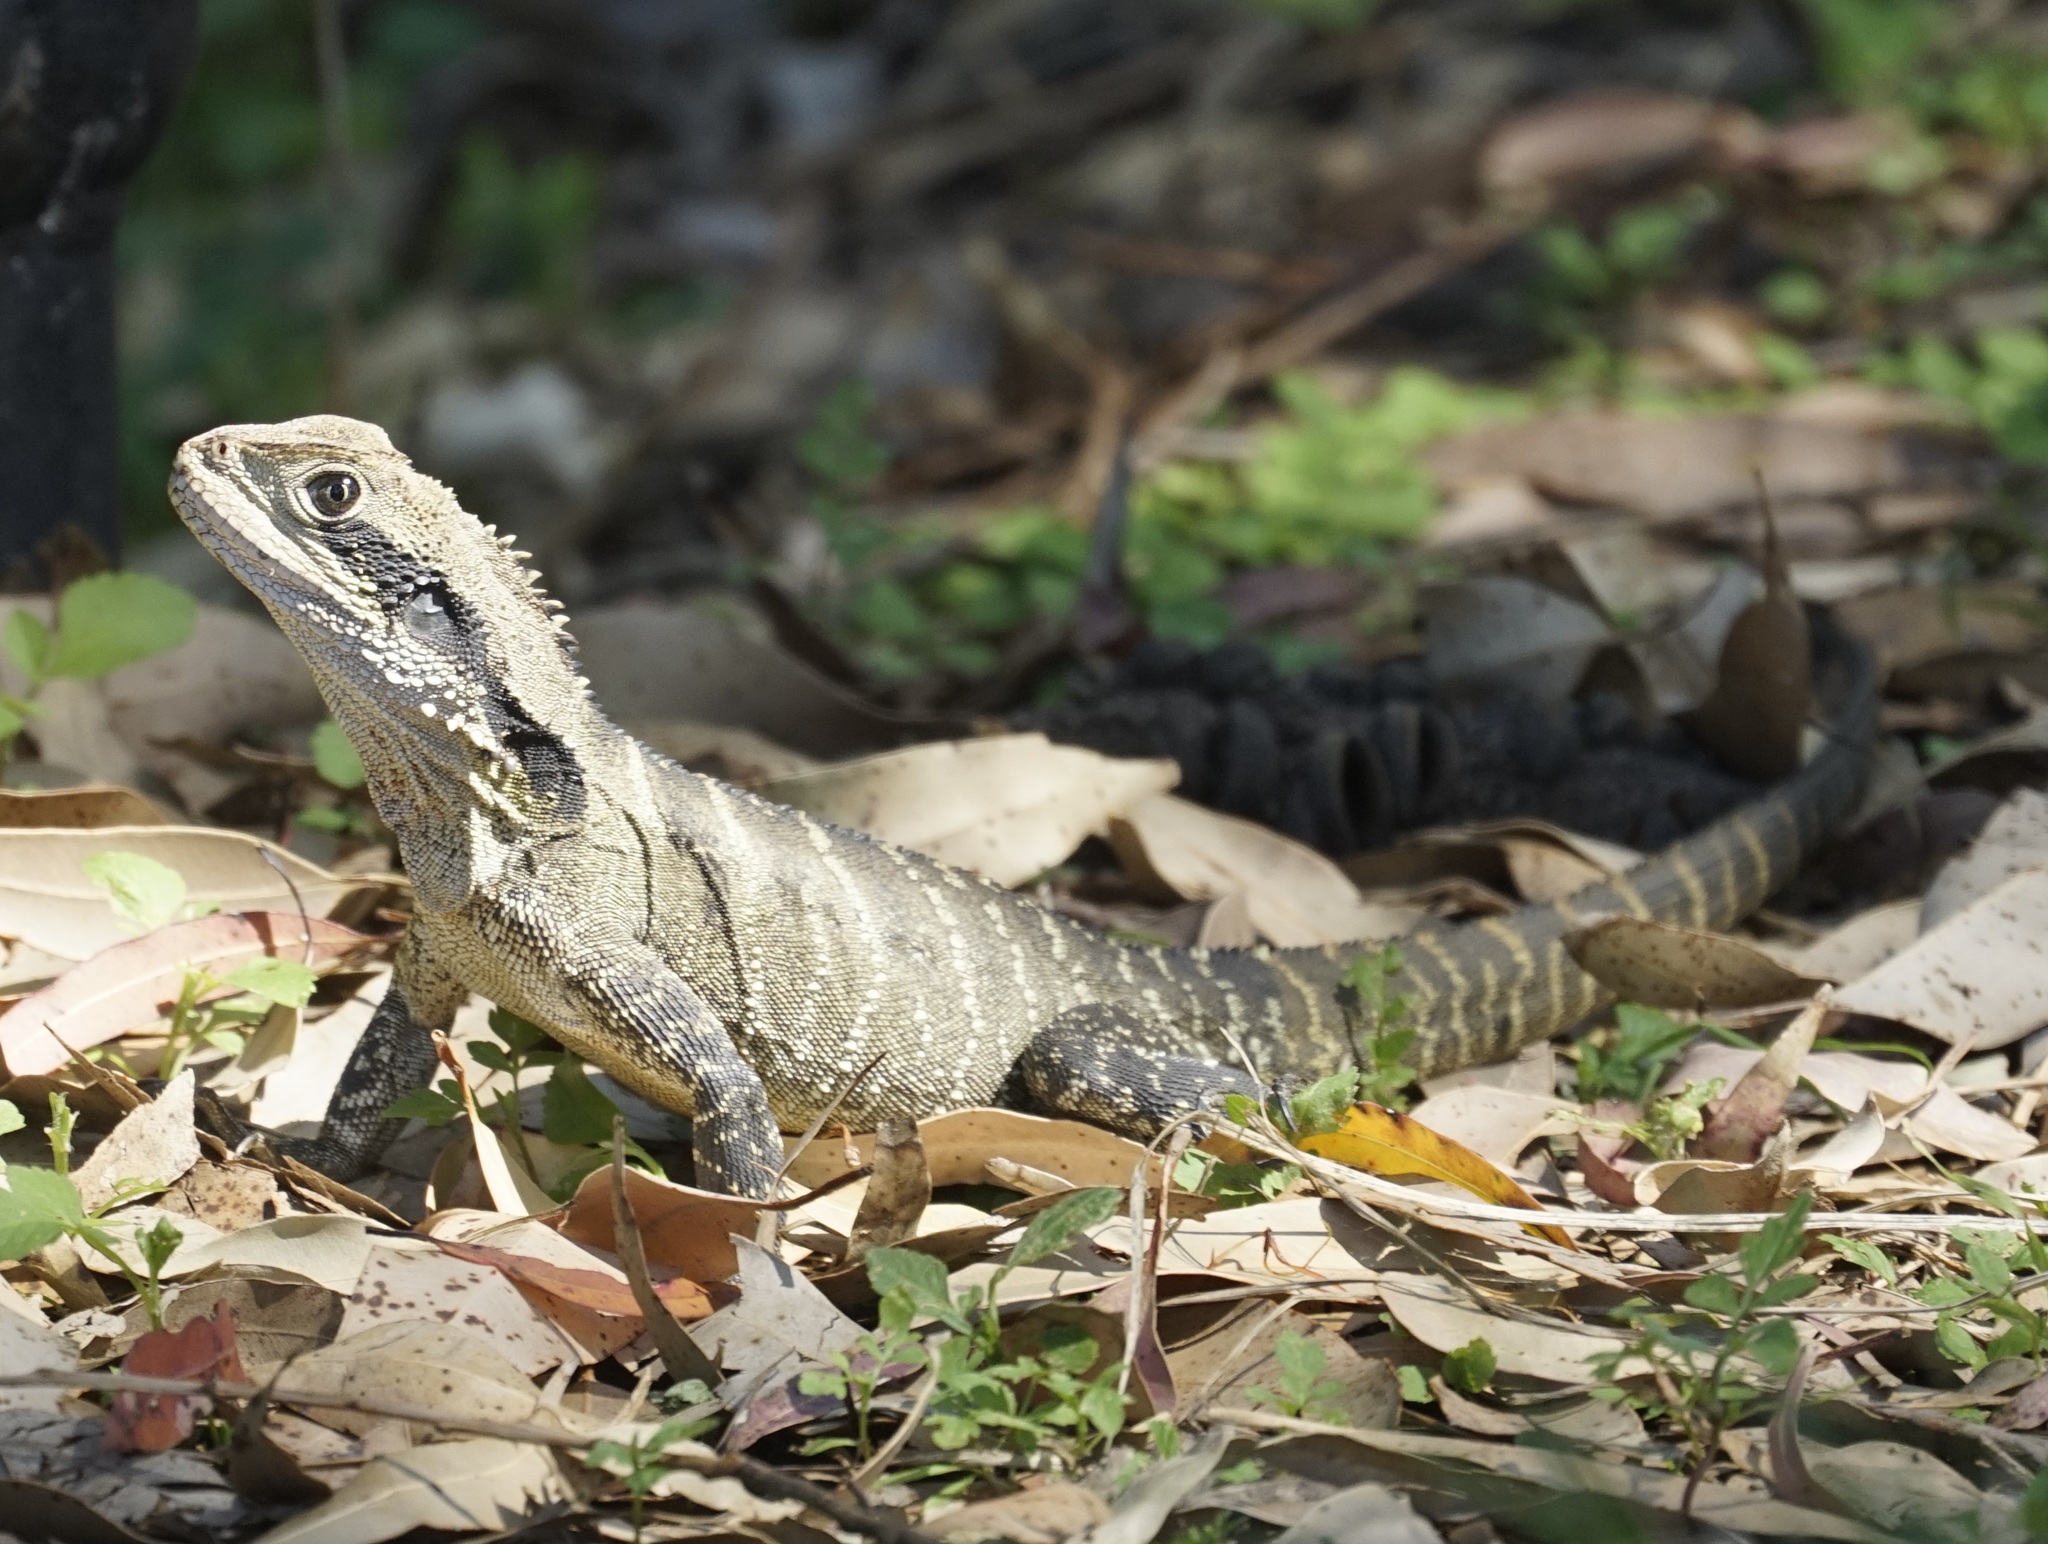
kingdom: Animalia
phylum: Chordata
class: Squamata
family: Agamidae
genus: Intellagama
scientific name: Intellagama lesueurii
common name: Eastern water dragon
